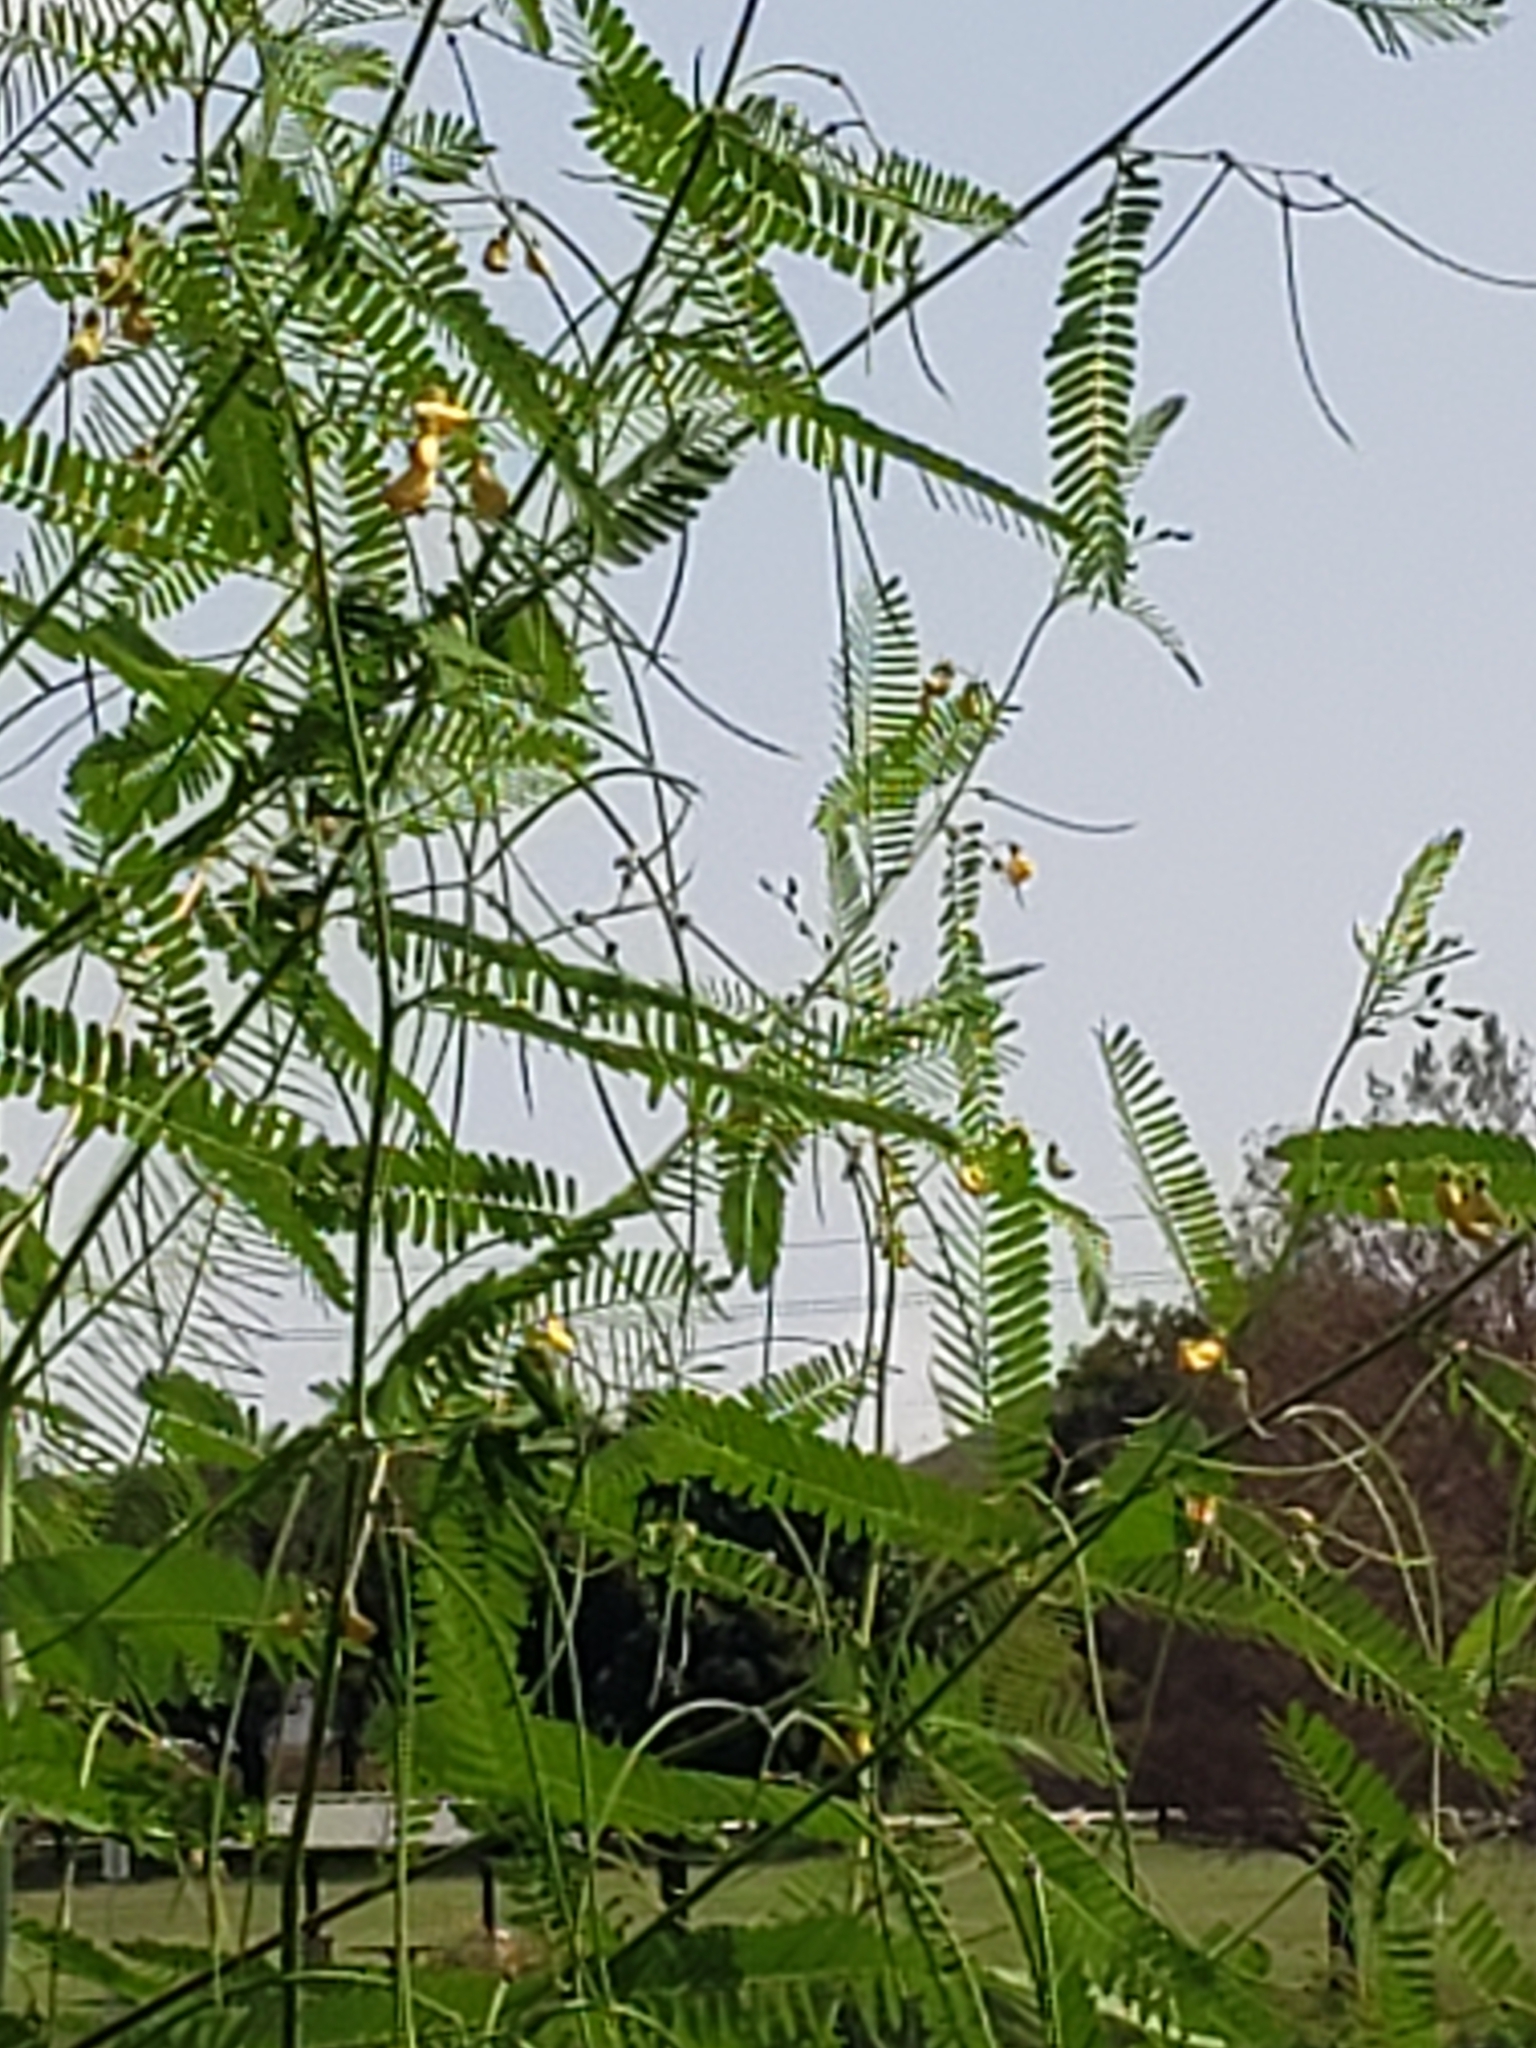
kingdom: Plantae
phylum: Tracheophyta
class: Magnoliopsida
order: Fabales
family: Fabaceae
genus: Sesbania
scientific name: Sesbania herbacea
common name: Bigpod sesbania
